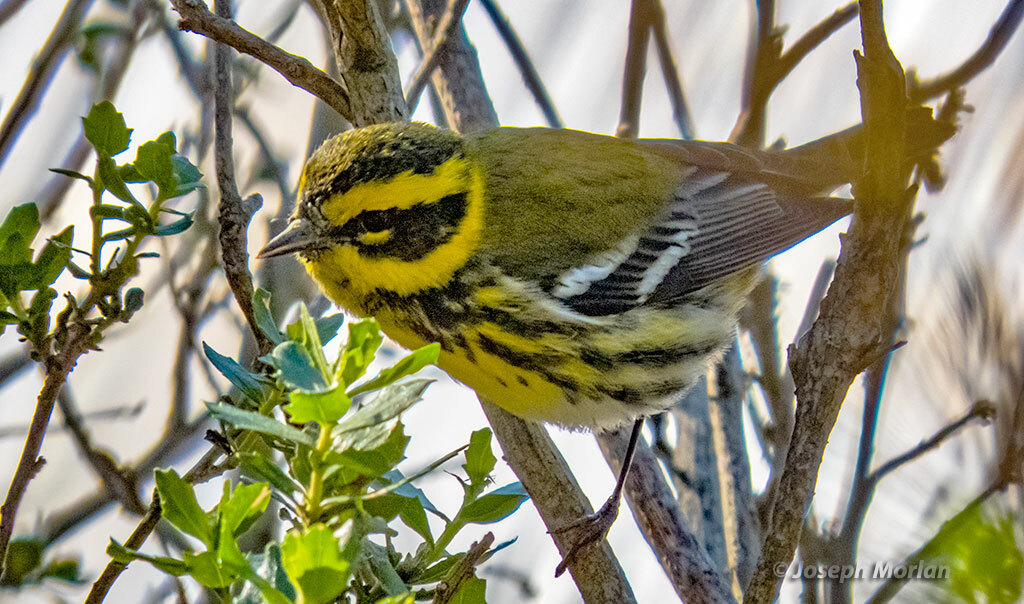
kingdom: Animalia
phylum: Chordata
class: Aves
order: Passeriformes
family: Parulidae
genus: Setophaga
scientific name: Setophaga townsendi
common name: Townsend's warbler
